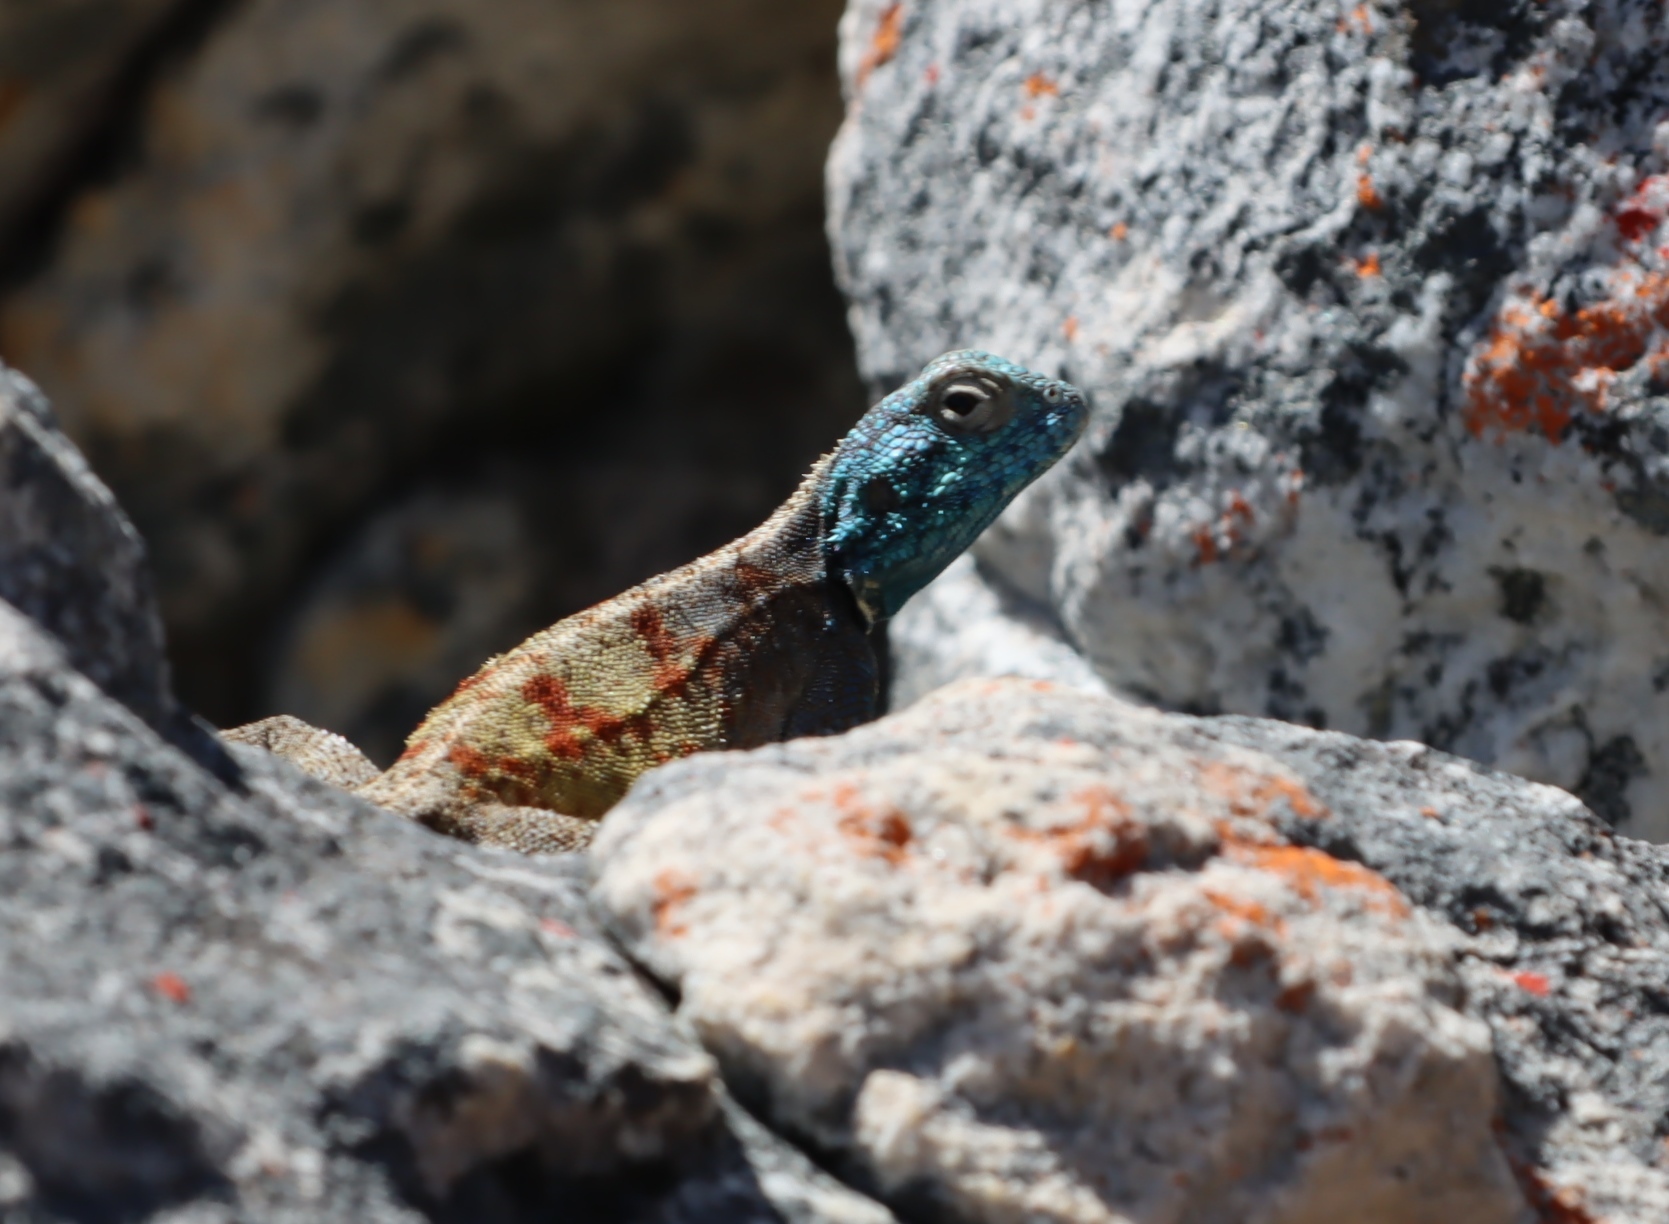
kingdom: Animalia
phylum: Chordata
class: Squamata
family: Agamidae
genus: Agama
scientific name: Agama atra
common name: Southern african rock agama
